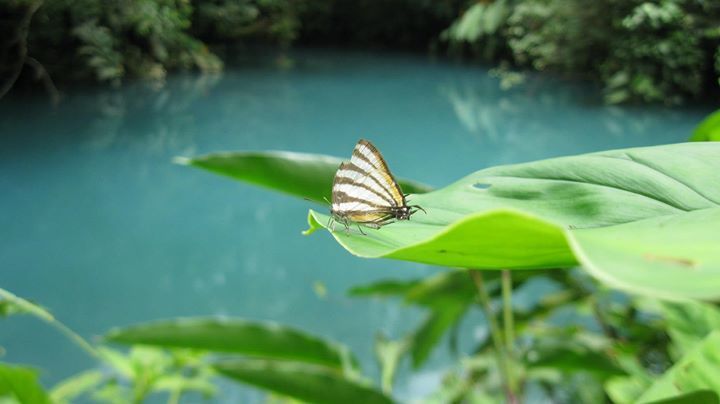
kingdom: Animalia
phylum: Arthropoda
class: Insecta
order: Lepidoptera
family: Lycaenidae
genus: Arawacus
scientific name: Arawacus togarna
